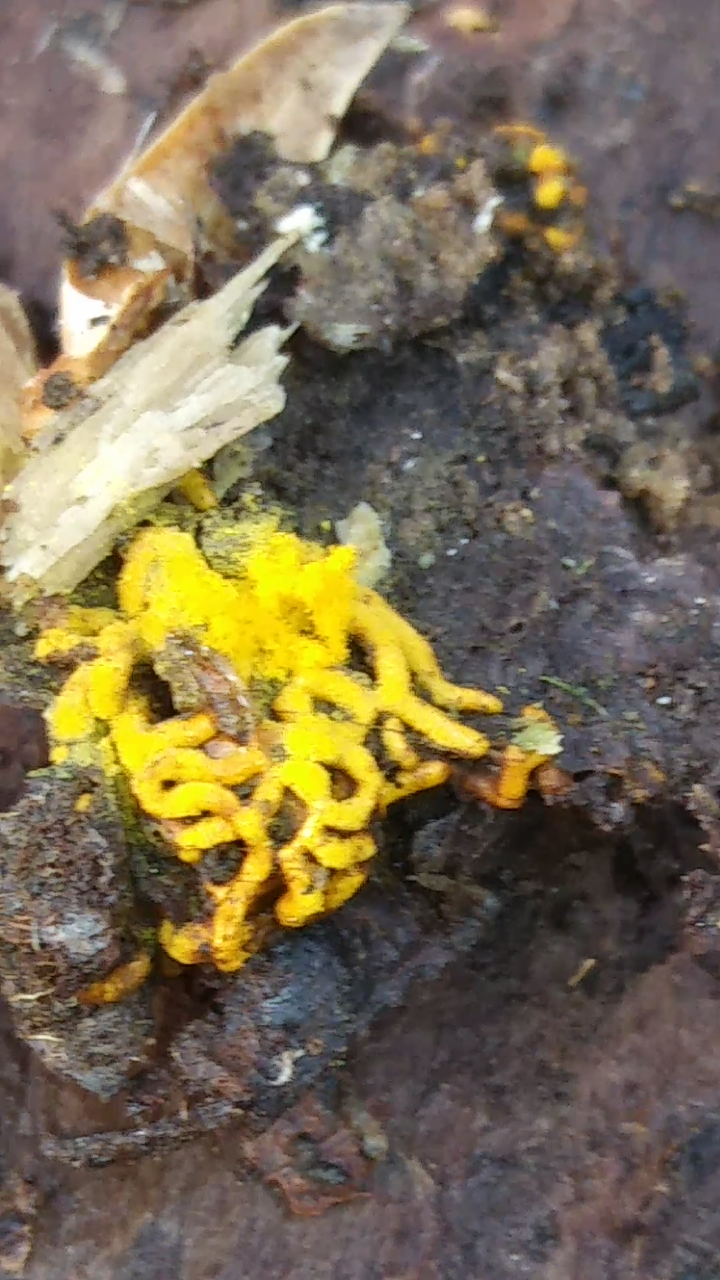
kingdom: Protozoa
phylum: Mycetozoa
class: Myxomycetes
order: Trichiales
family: Arcyriaceae
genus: Hemitrichia
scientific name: Hemitrichia serpula
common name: Pretzel slime mold
